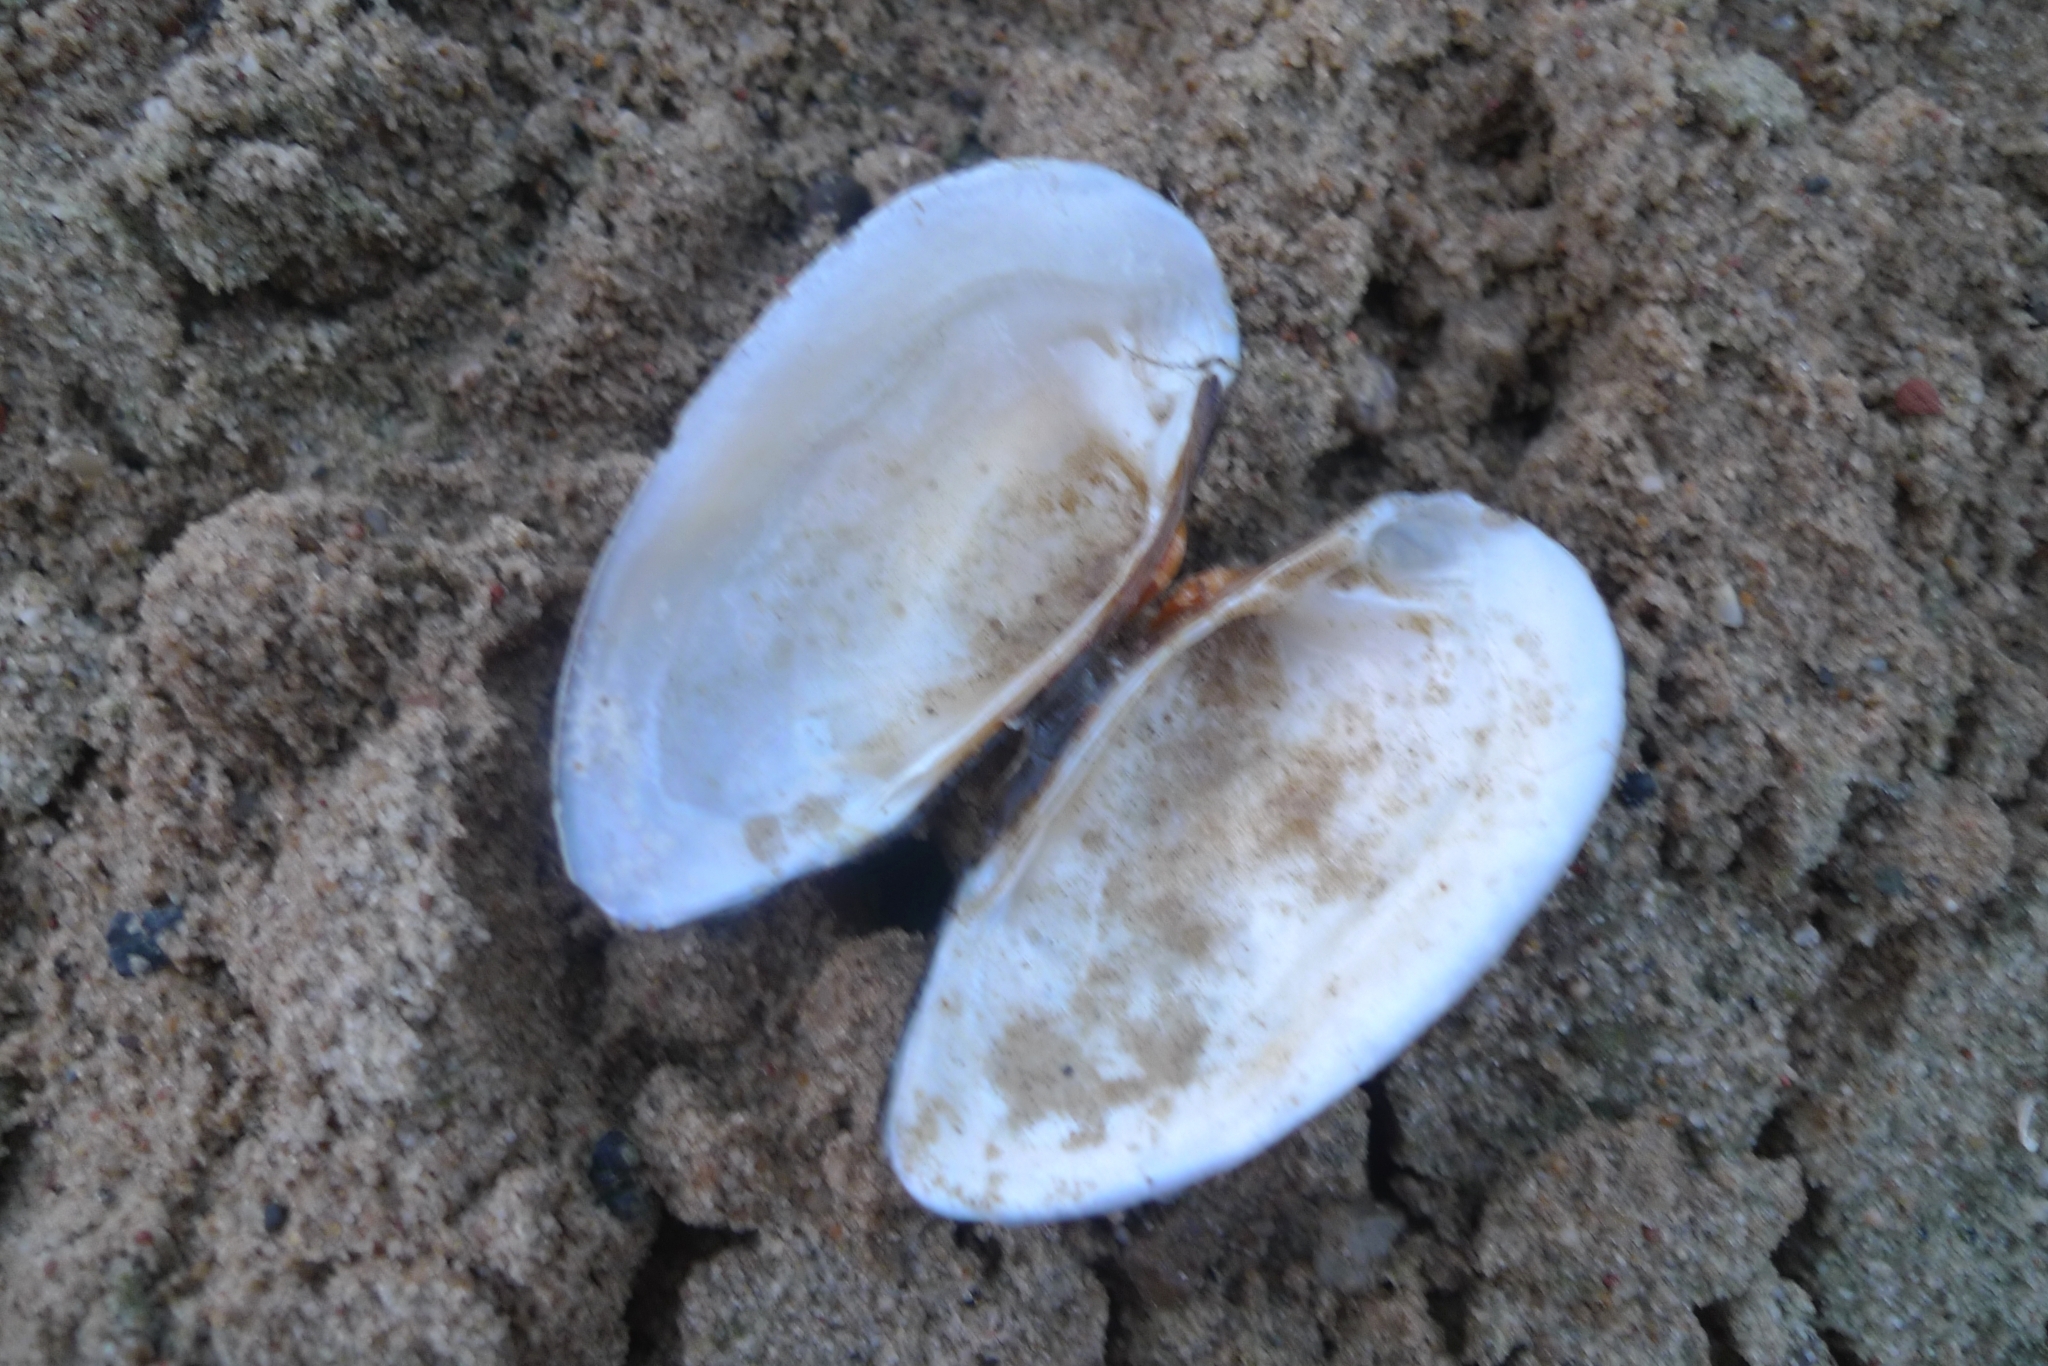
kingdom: Animalia
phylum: Mollusca
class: Bivalvia
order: Unionida
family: Unionidae
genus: Unio
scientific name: Unio tumidus
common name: Swollen river mussel
